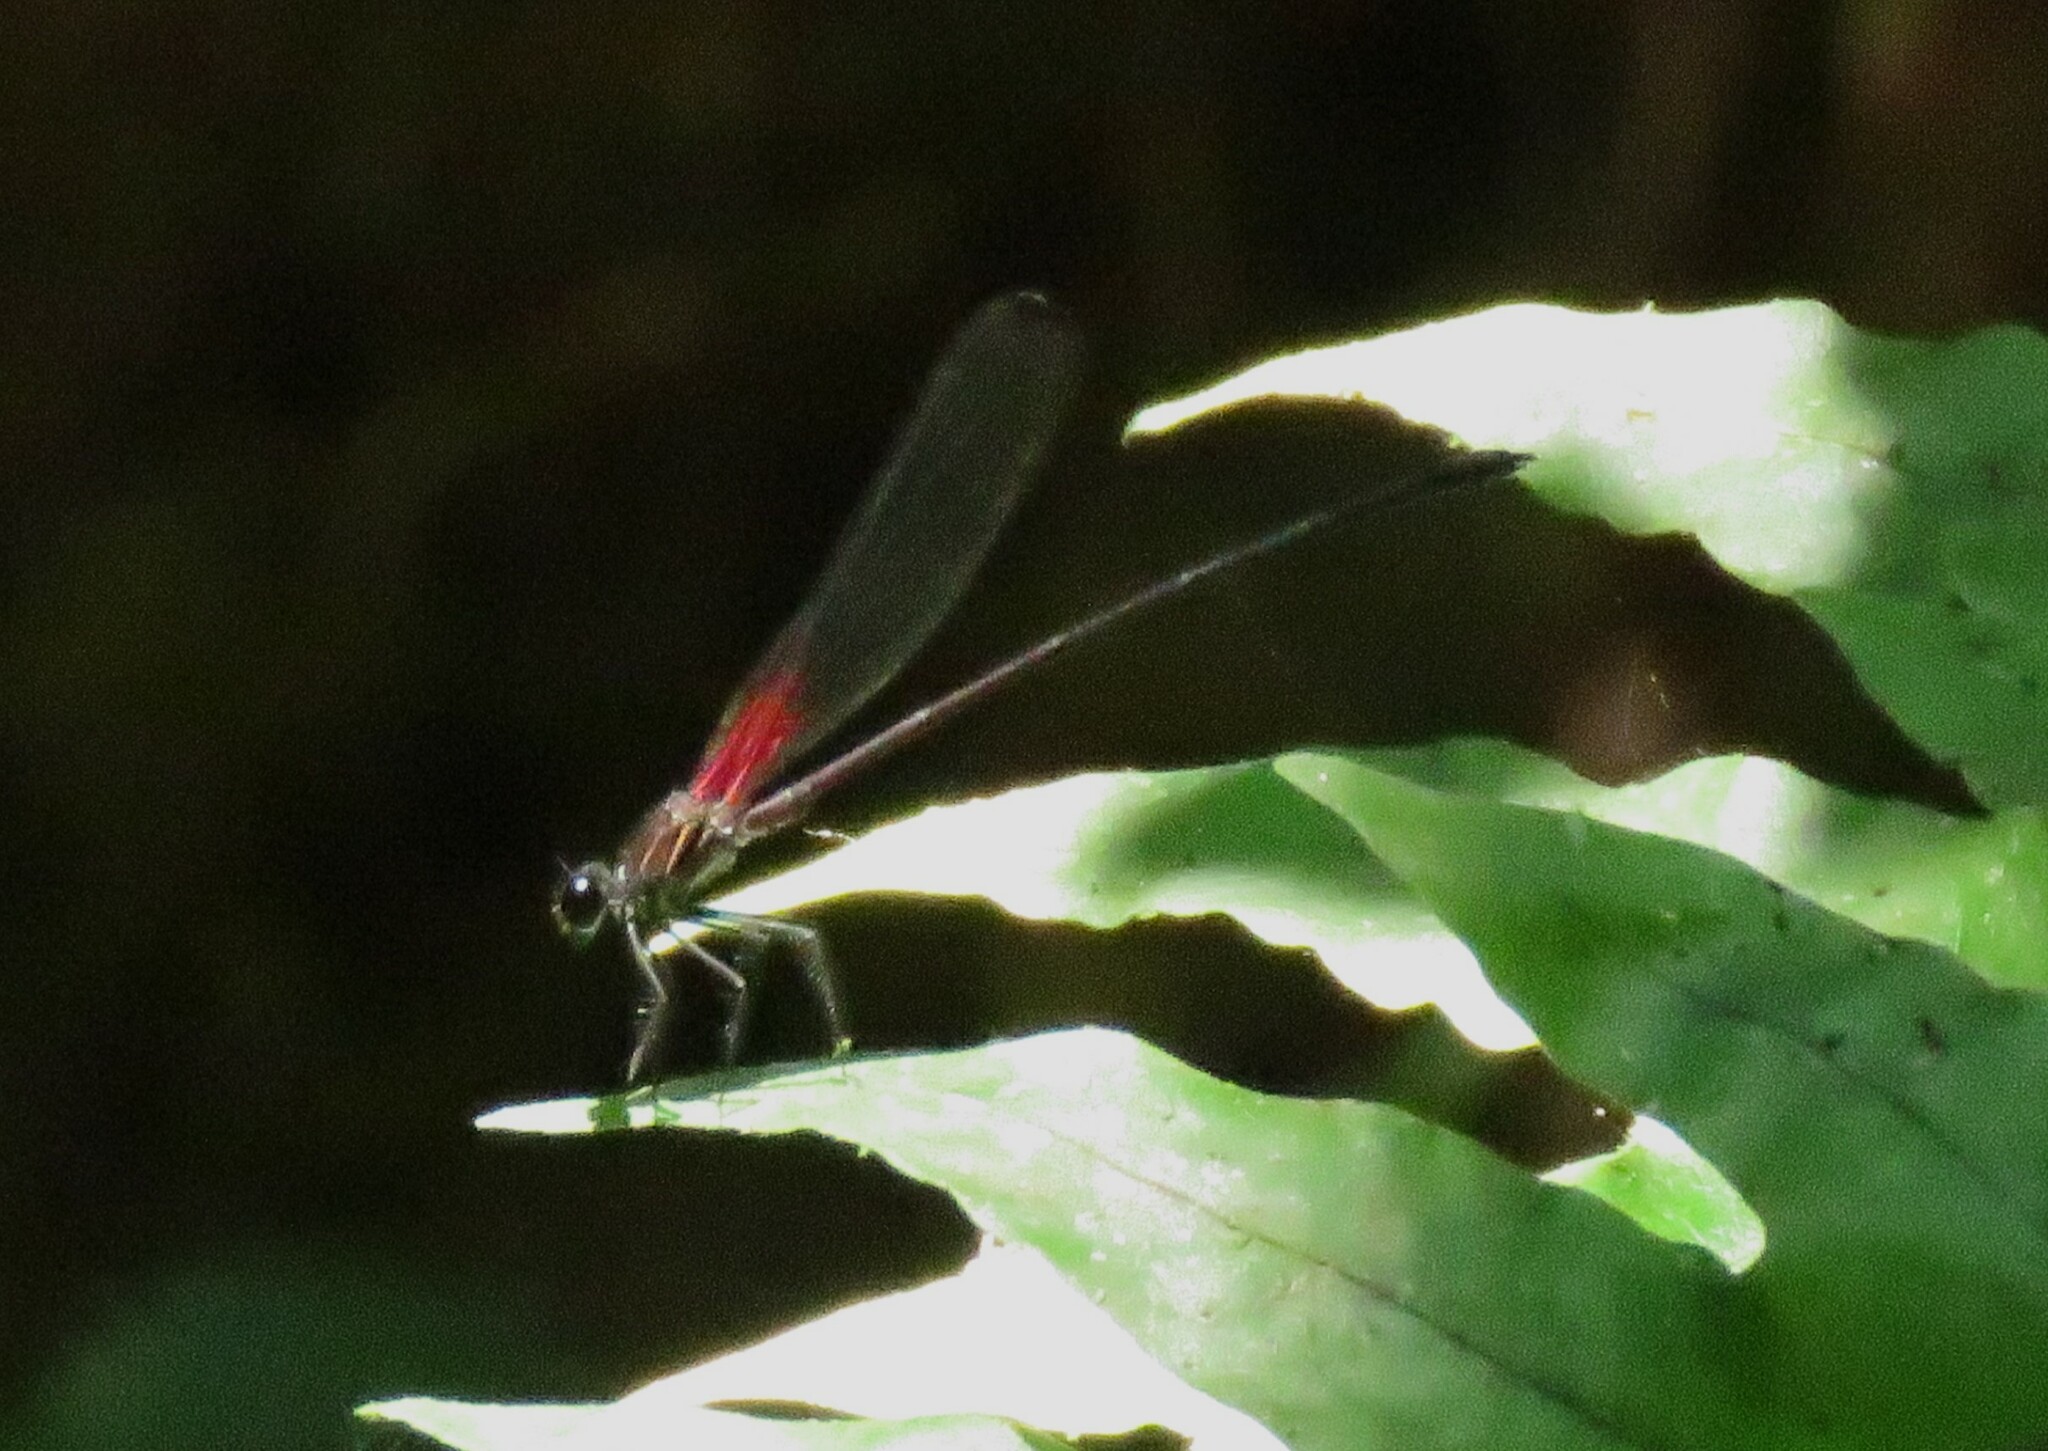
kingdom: Animalia
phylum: Arthropoda
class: Insecta
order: Odonata
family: Calopterygidae
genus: Hetaerina
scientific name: Hetaerina fuscoguttata
